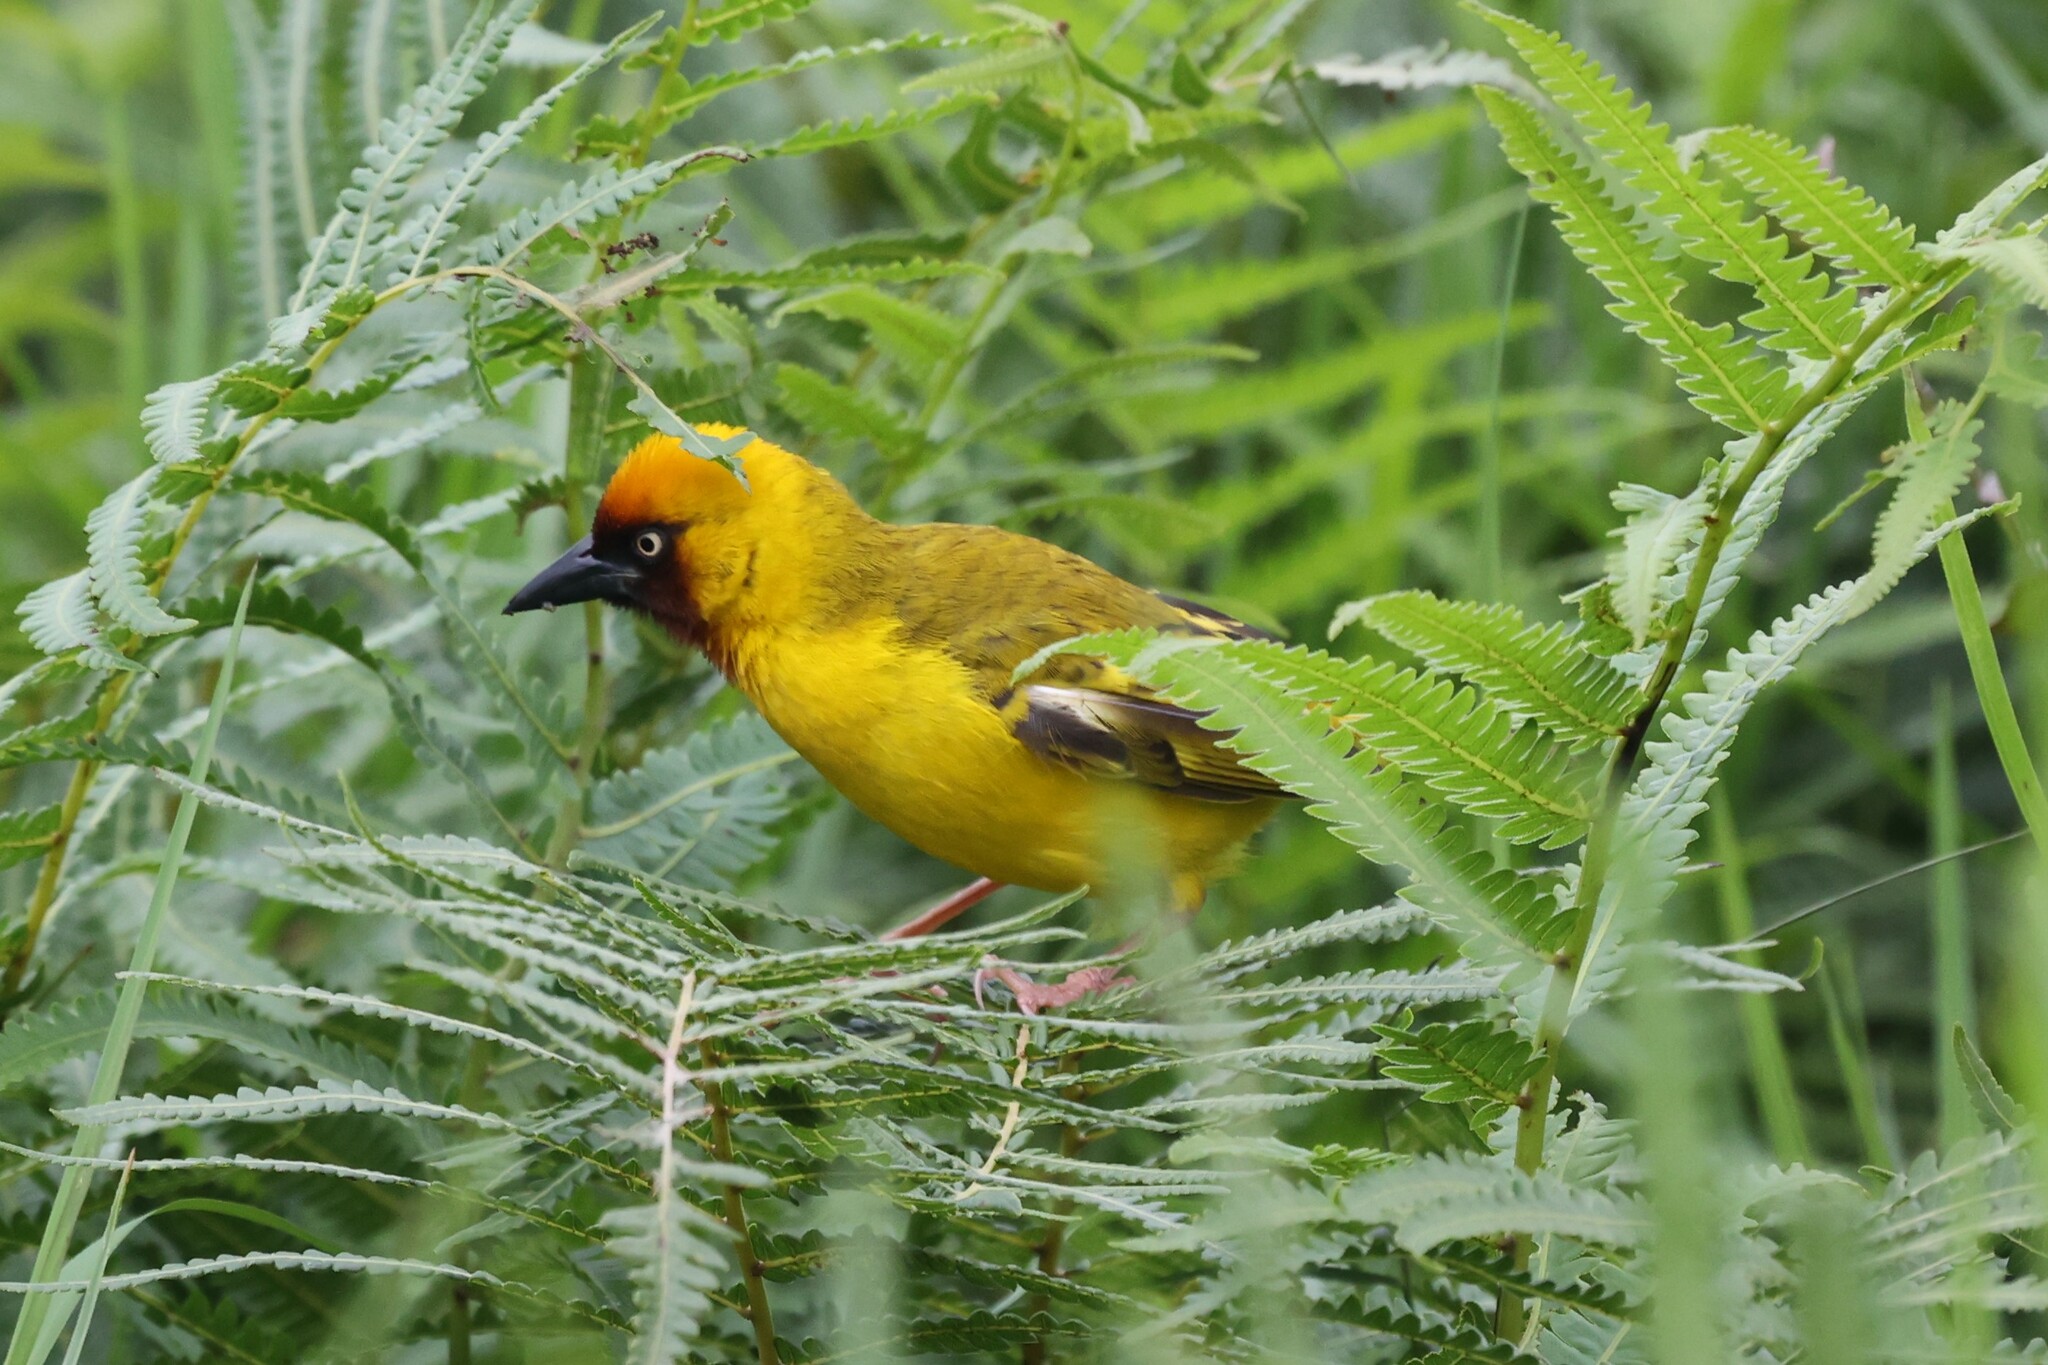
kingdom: Animalia
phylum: Chordata
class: Aves
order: Passeriformes
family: Ploceidae
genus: Ploceus
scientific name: Ploceus castanops
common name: Northern brown-throated weaver
